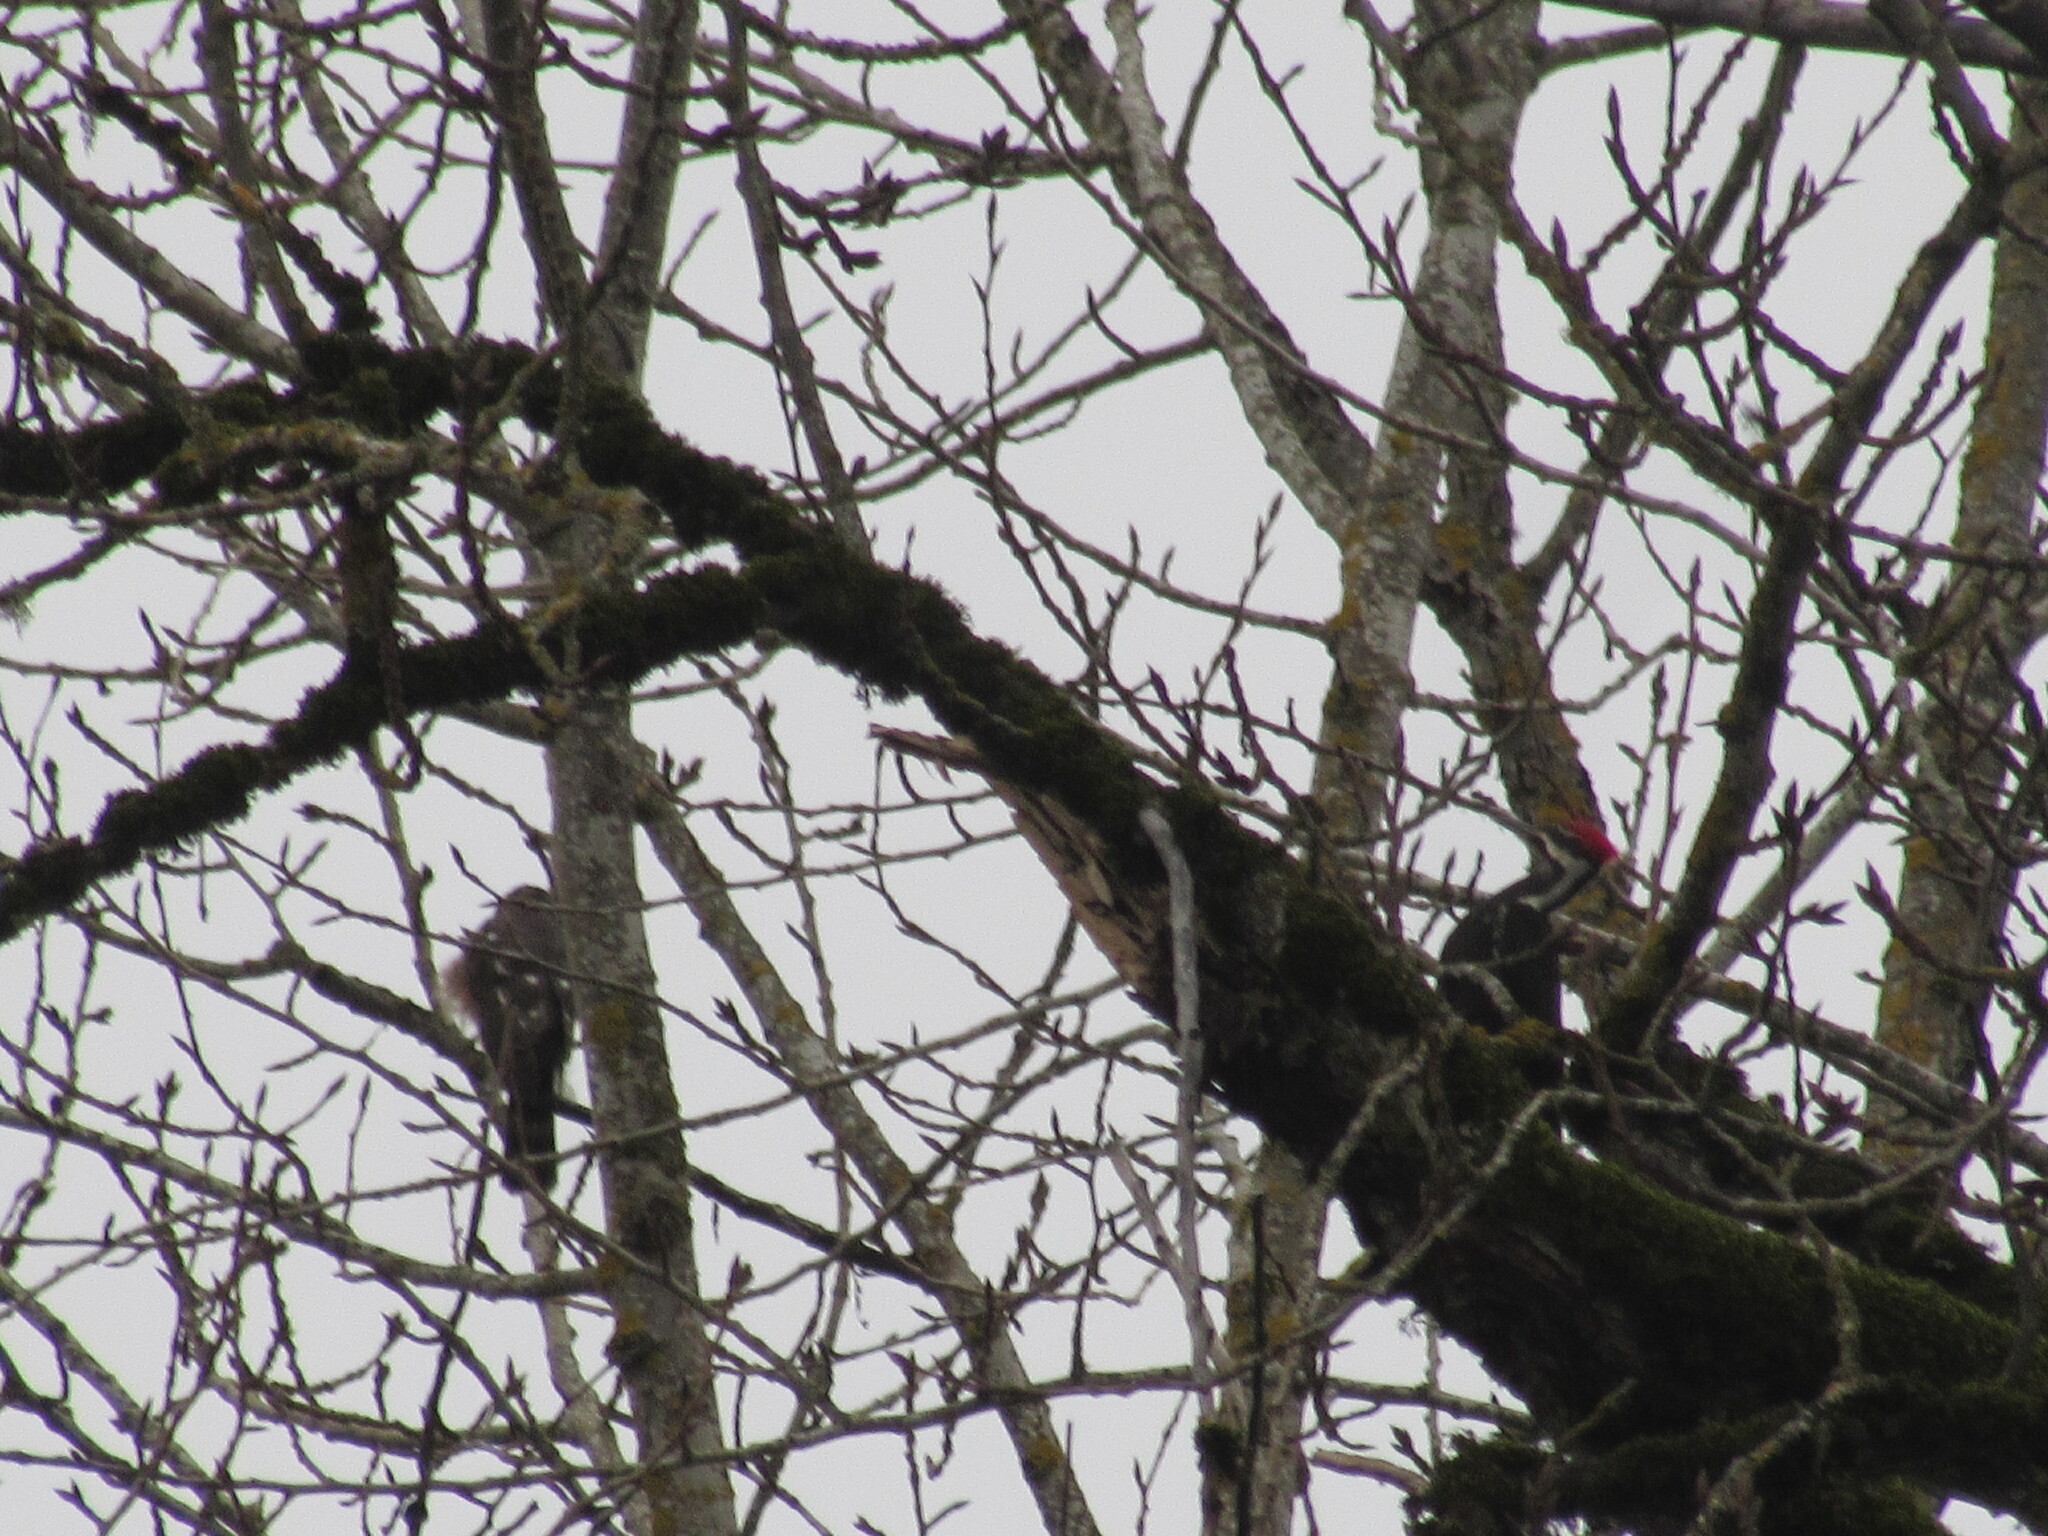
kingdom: Animalia
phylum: Chordata
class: Aves
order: Piciformes
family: Picidae
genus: Dryocopus
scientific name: Dryocopus pileatus
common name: Pileated woodpecker
